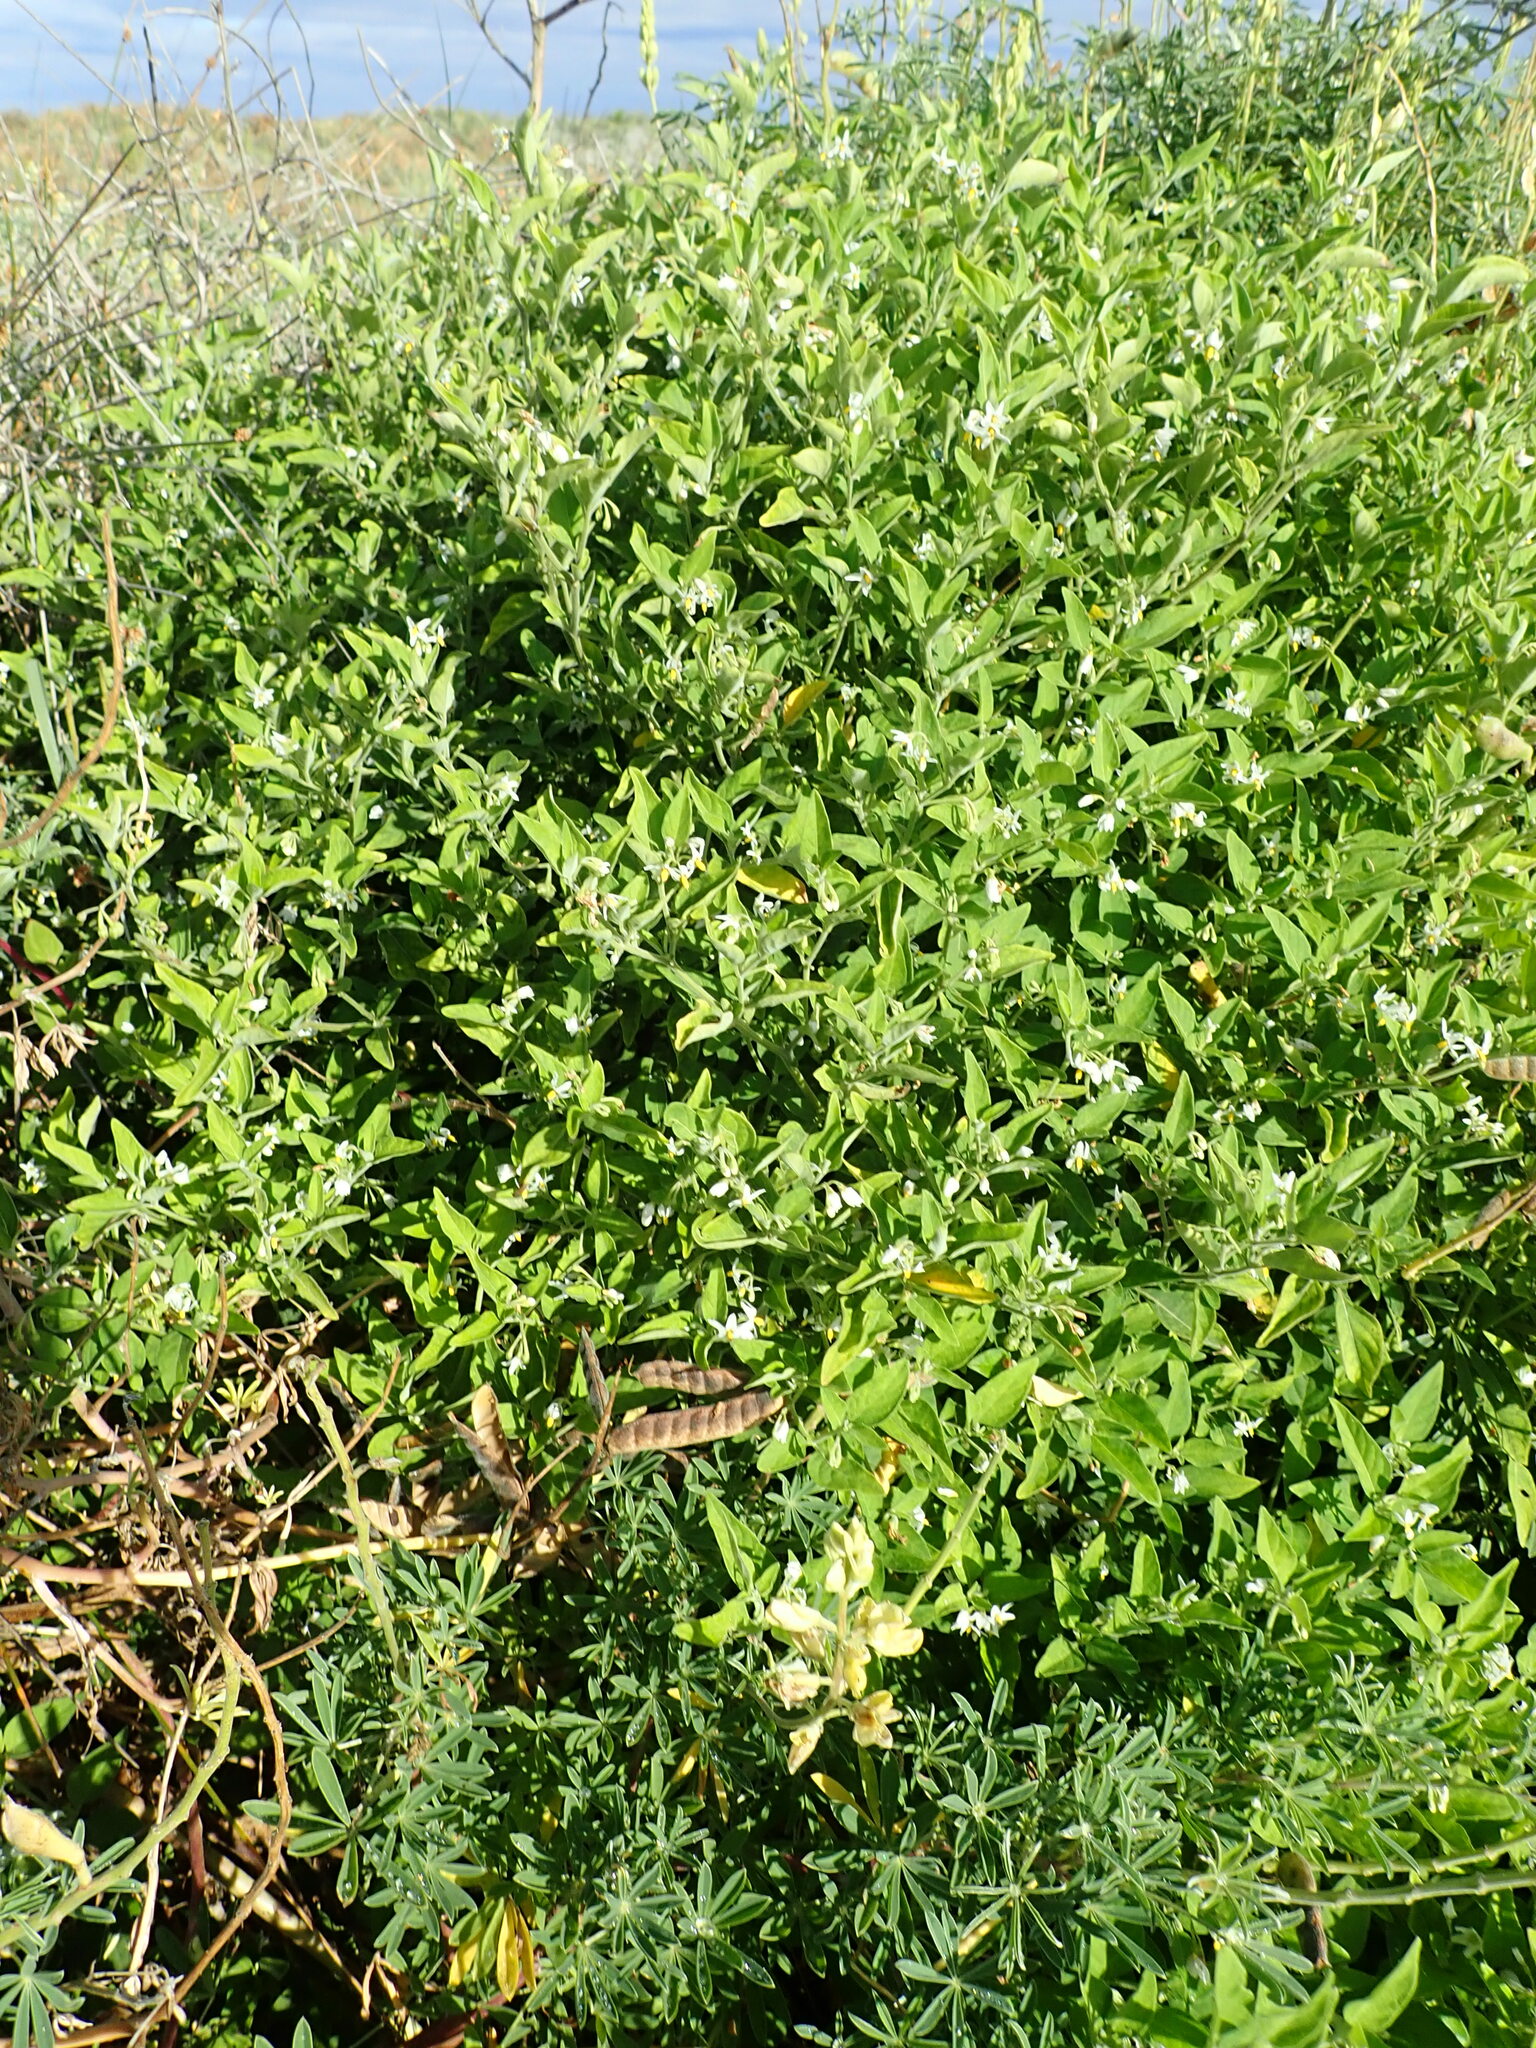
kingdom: Plantae
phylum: Tracheophyta
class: Magnoliopsida
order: Solanales
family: Solanaceae
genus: Solanum
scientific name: Solanum chenopodioides
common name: Tall nightshade
